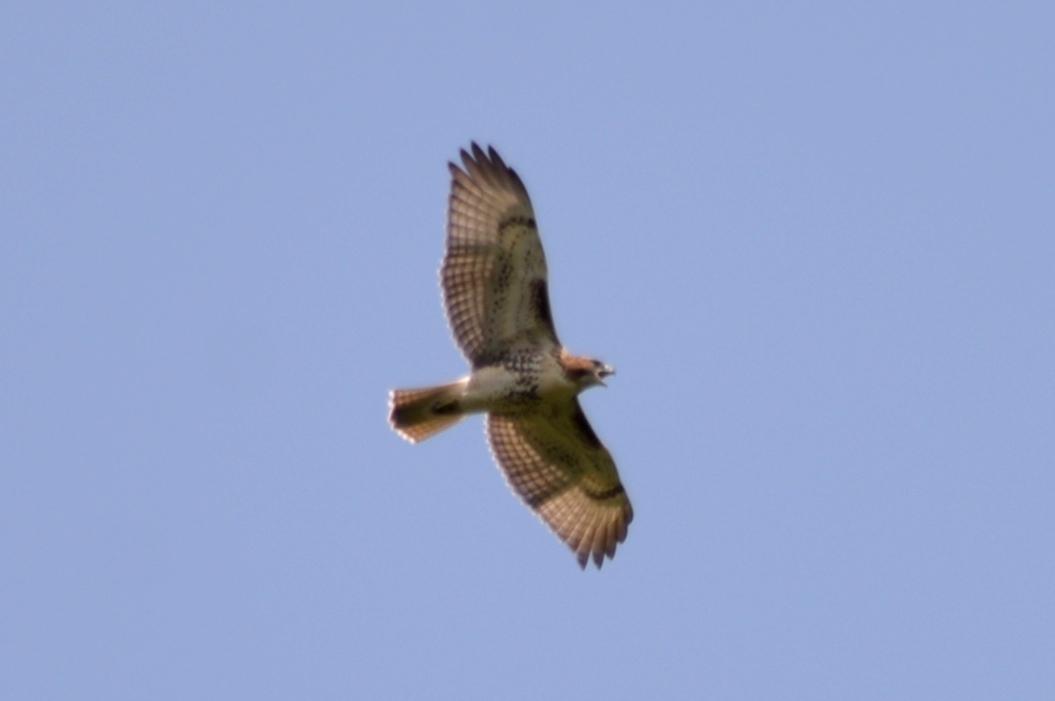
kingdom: Animalia
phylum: Chordata
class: Aves
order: Accipitriformes
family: Accipitridae
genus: Buteo
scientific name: Buteo jamaicensis
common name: Red-tailed hawk
